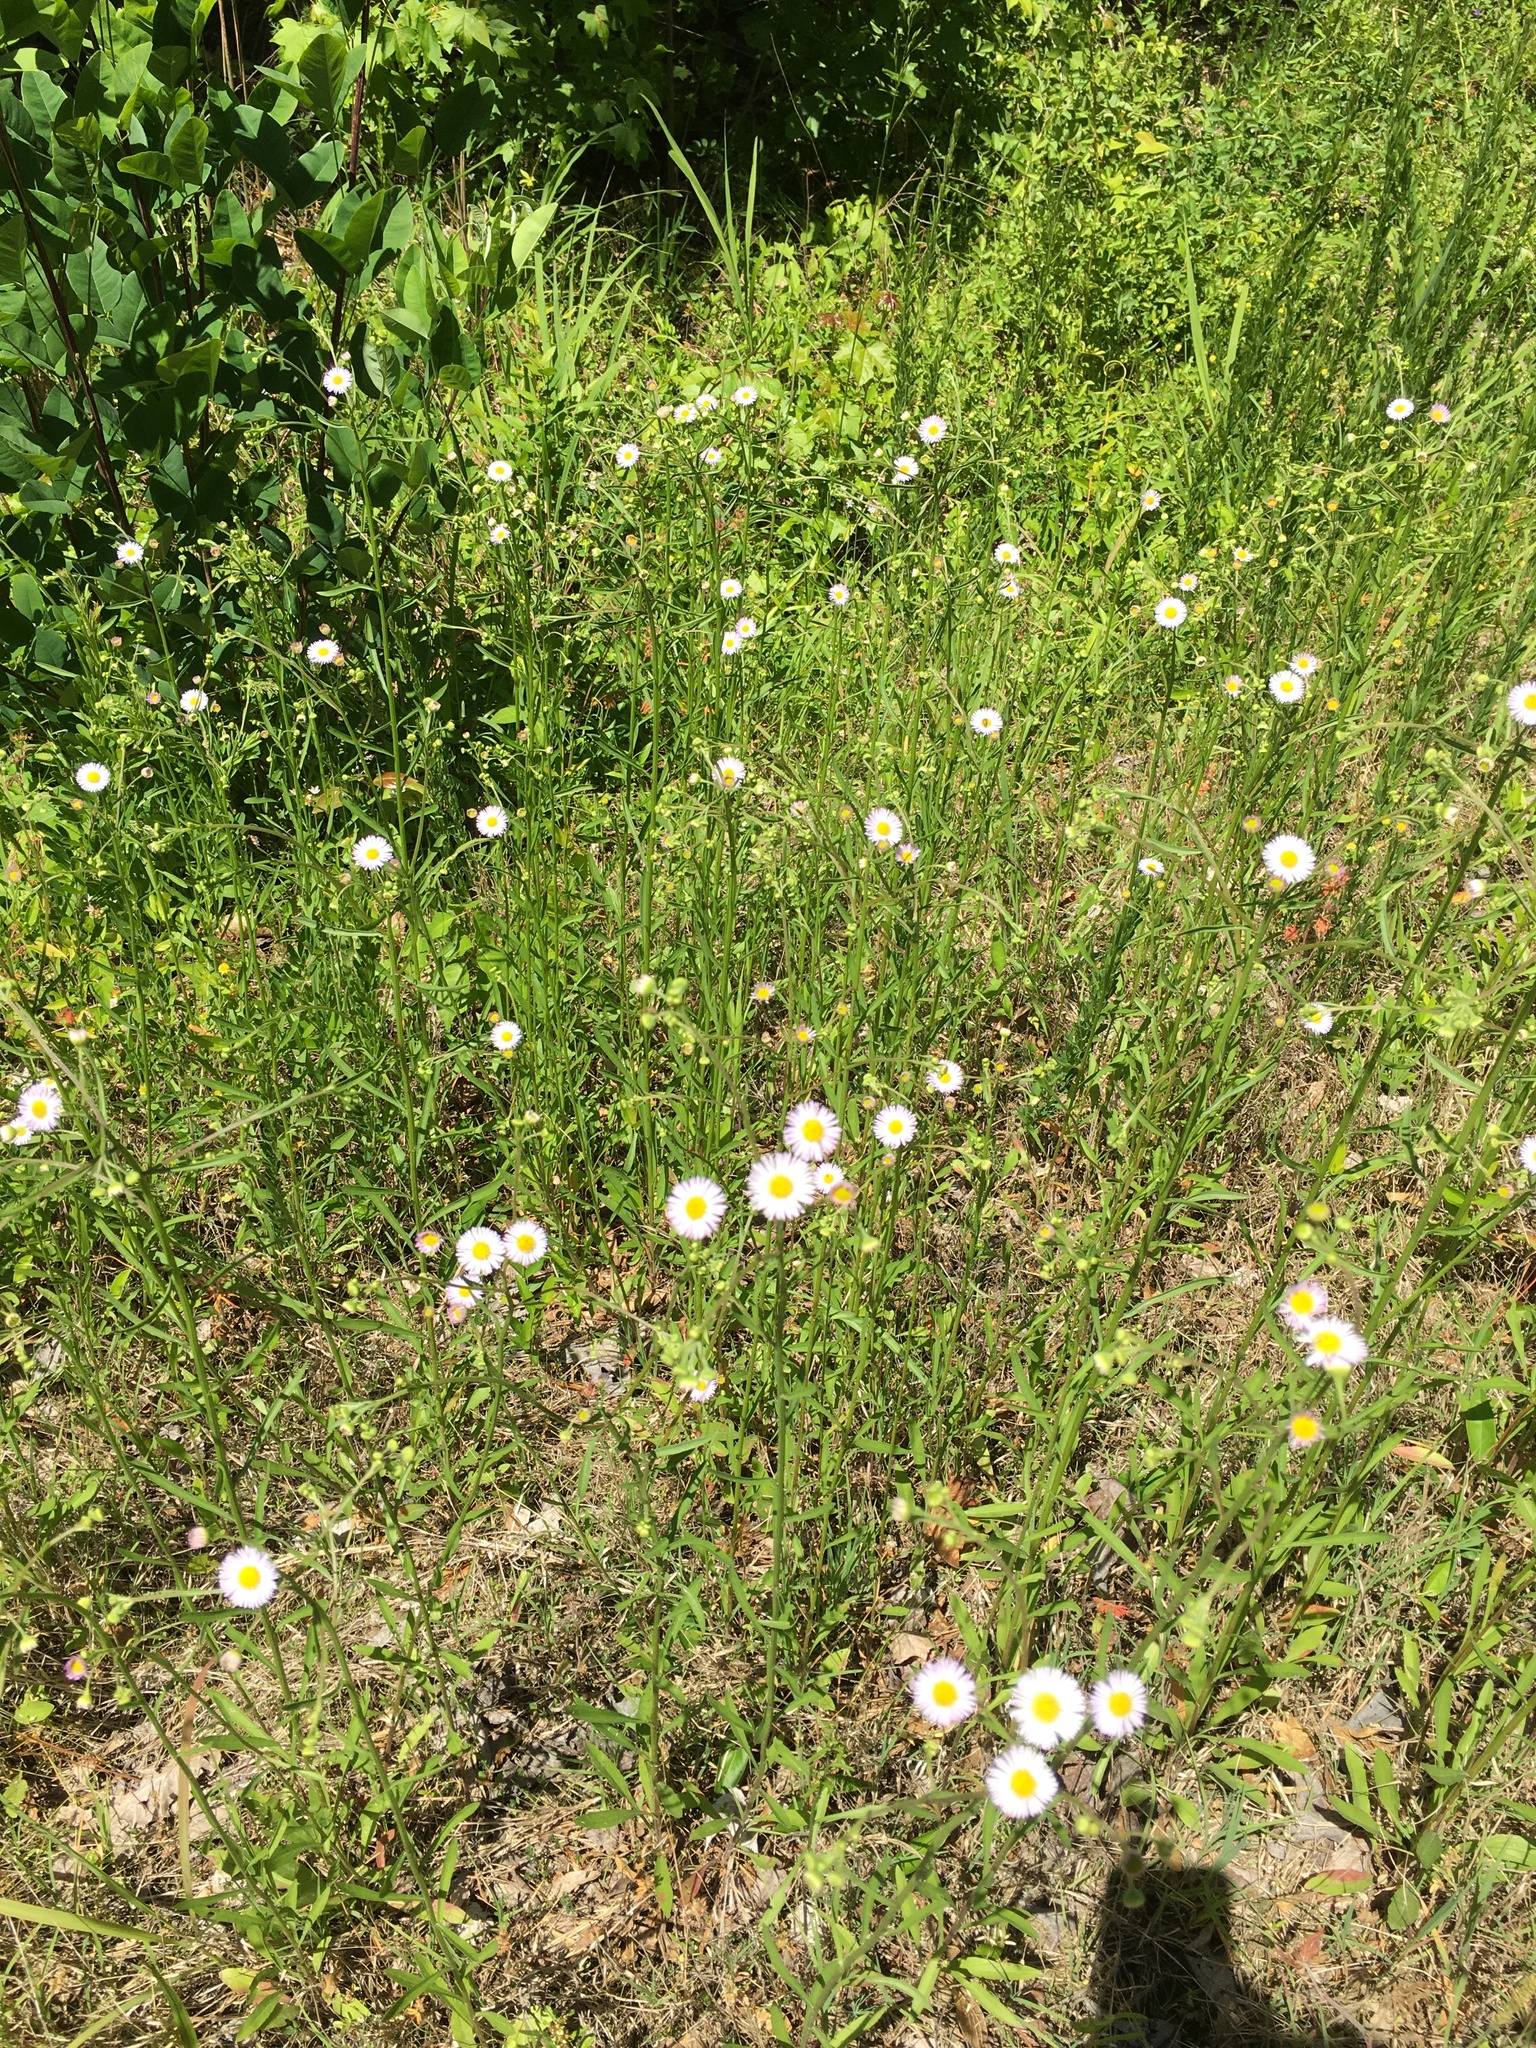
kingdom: Plantae
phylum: Tracheophyta
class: Magnoliopsida
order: Asterales
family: Asteraceae
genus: Erigeron
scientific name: Erigeron strigosus
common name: Common eastern fleabane
